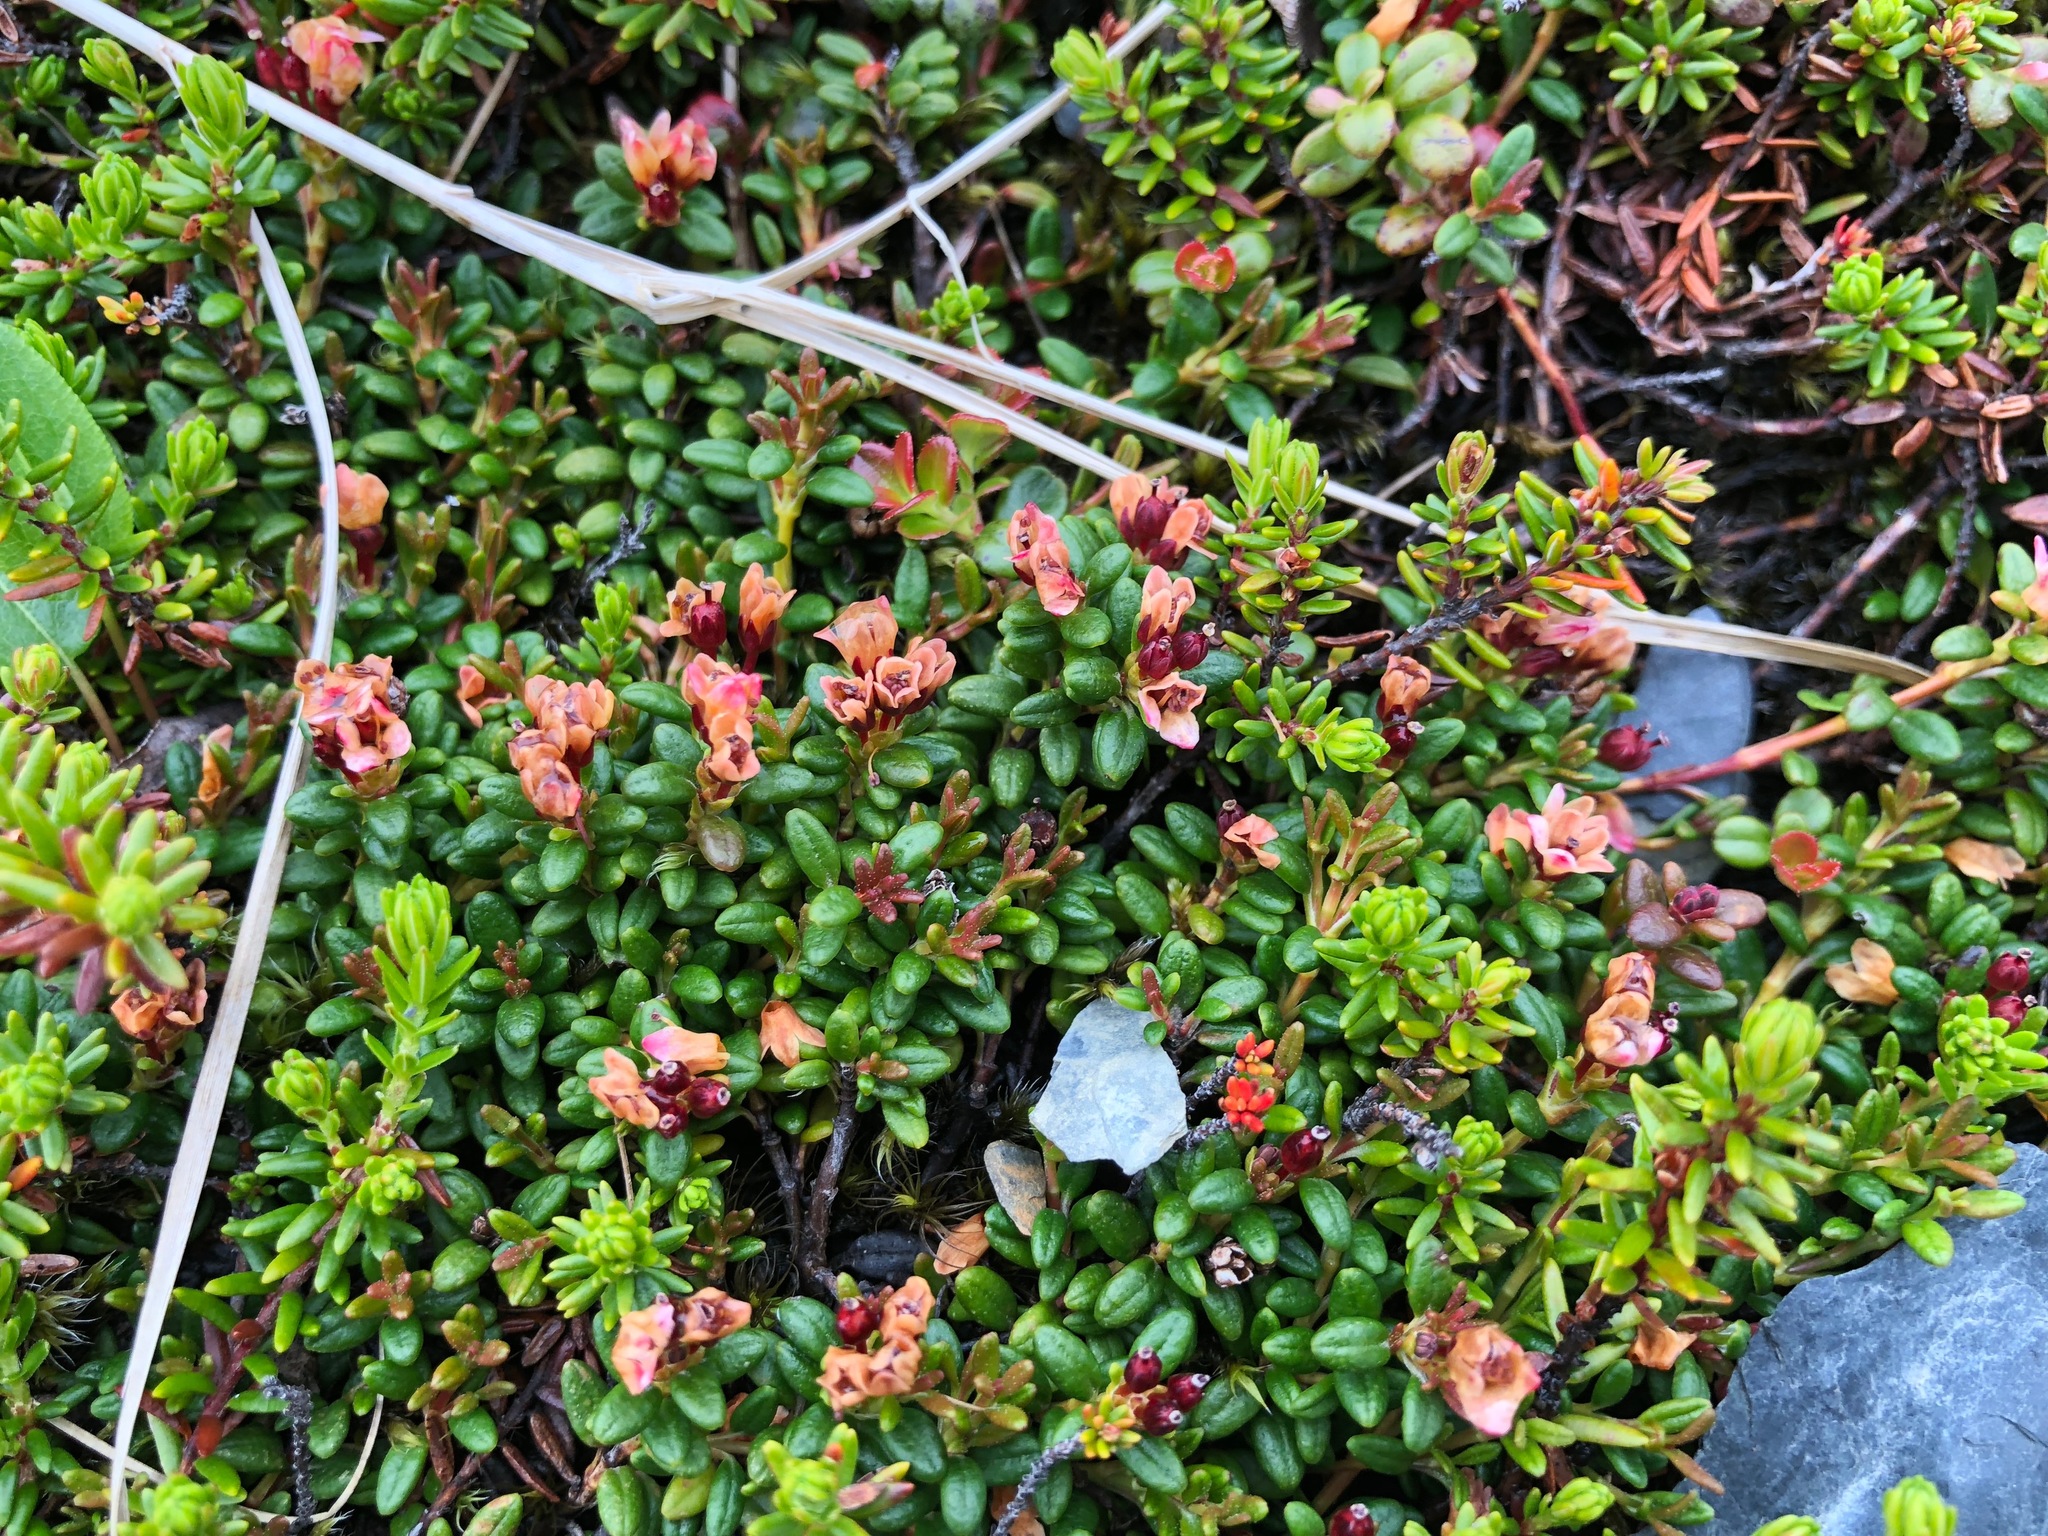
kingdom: Plantae
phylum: Tracheophyta
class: Magnoliopsida
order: Ericales
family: Ericaceae
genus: Kalmia
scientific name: Kalmia procumbens
